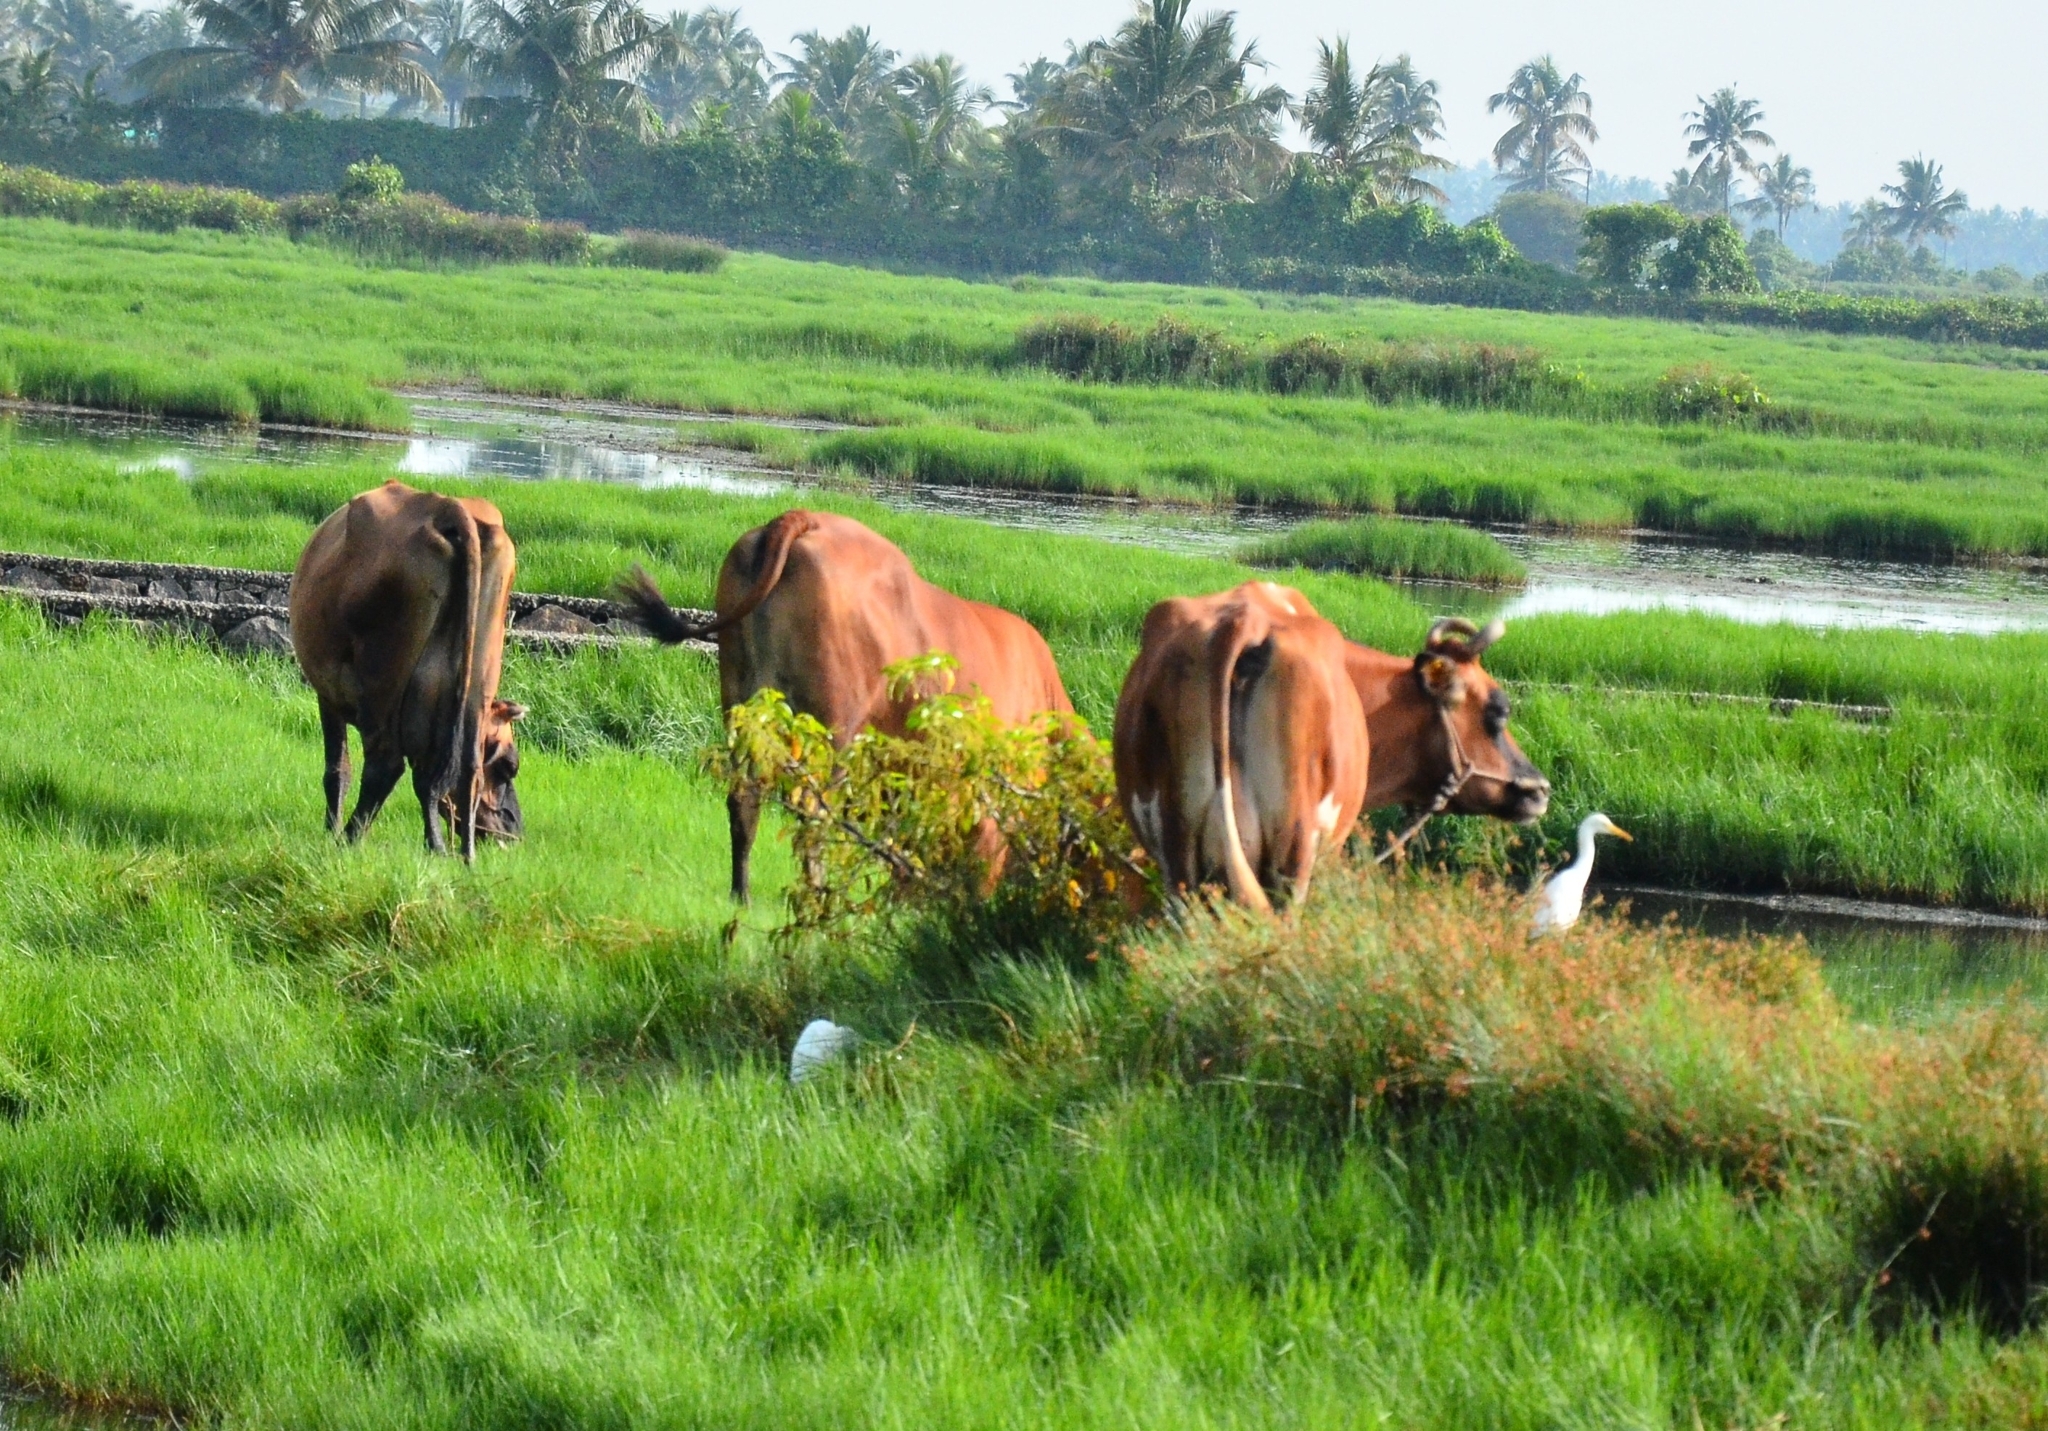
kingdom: Animalia
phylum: Chordata
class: Aves
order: Pelecaniformes
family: Ardeidae
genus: Bubulcus
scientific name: Bubulcus coromandus
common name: Eastern cattle egret
